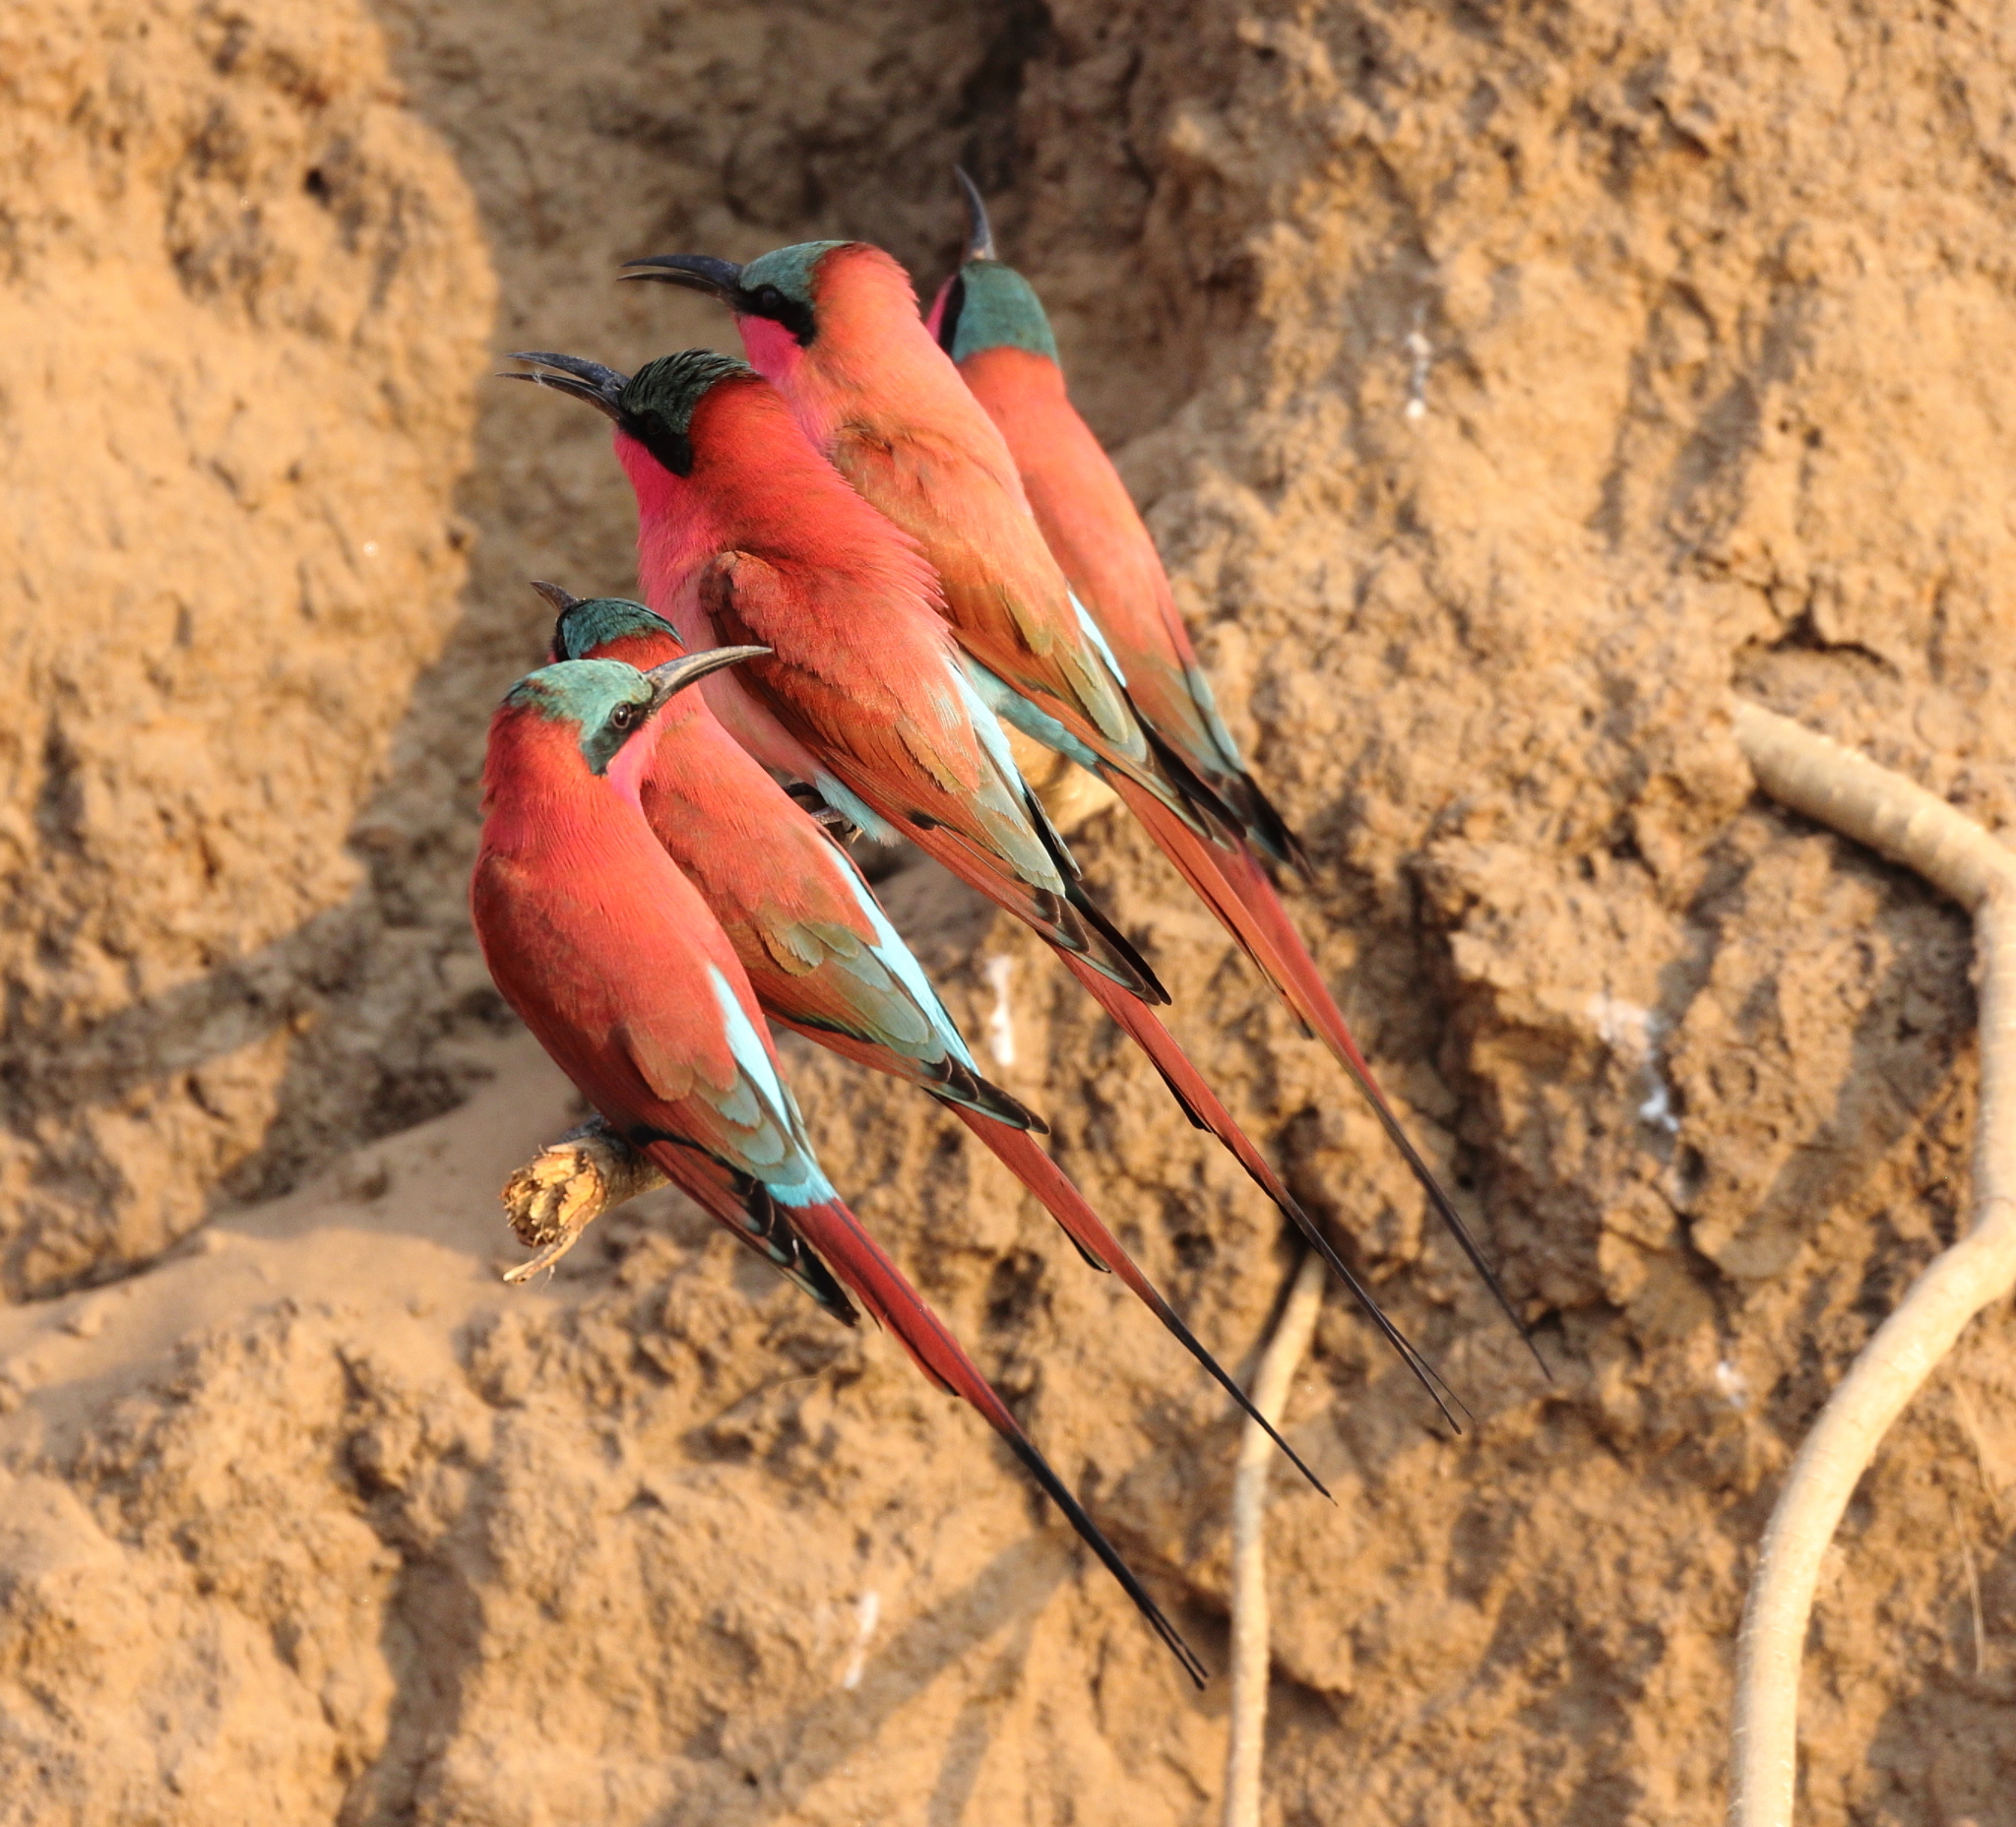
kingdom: Animalia
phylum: Chordata
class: Aves
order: Coraciiformes
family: Meropidae
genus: Merops
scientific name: Merops nubicoides
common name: Southern carmine bee-eater
